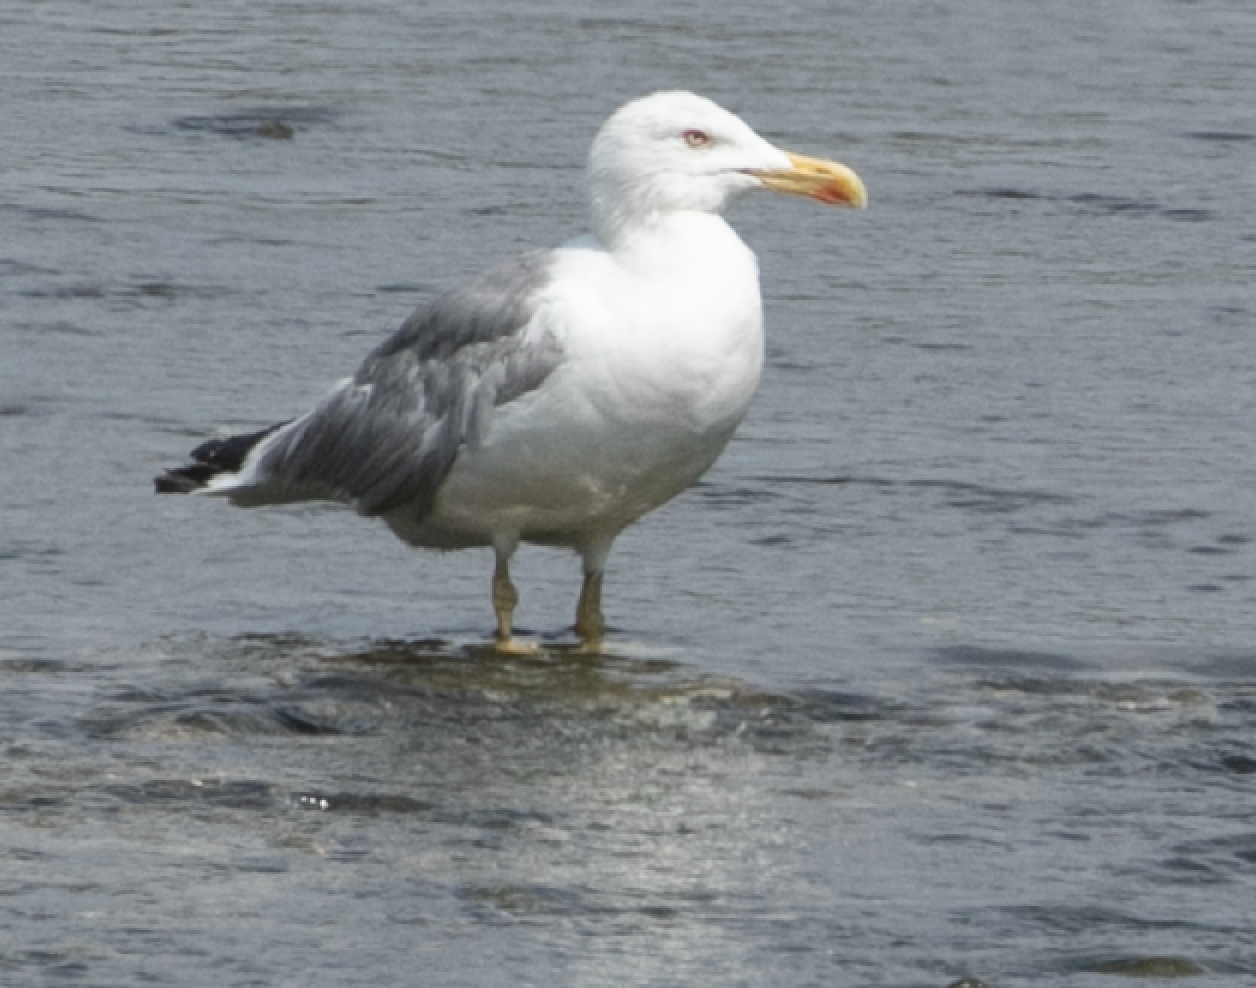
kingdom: Animalia
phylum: Chordata
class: Aves
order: Charadriiformes
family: Laridae
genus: Larus
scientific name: Larus michahellis
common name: Yellow-legged gull
